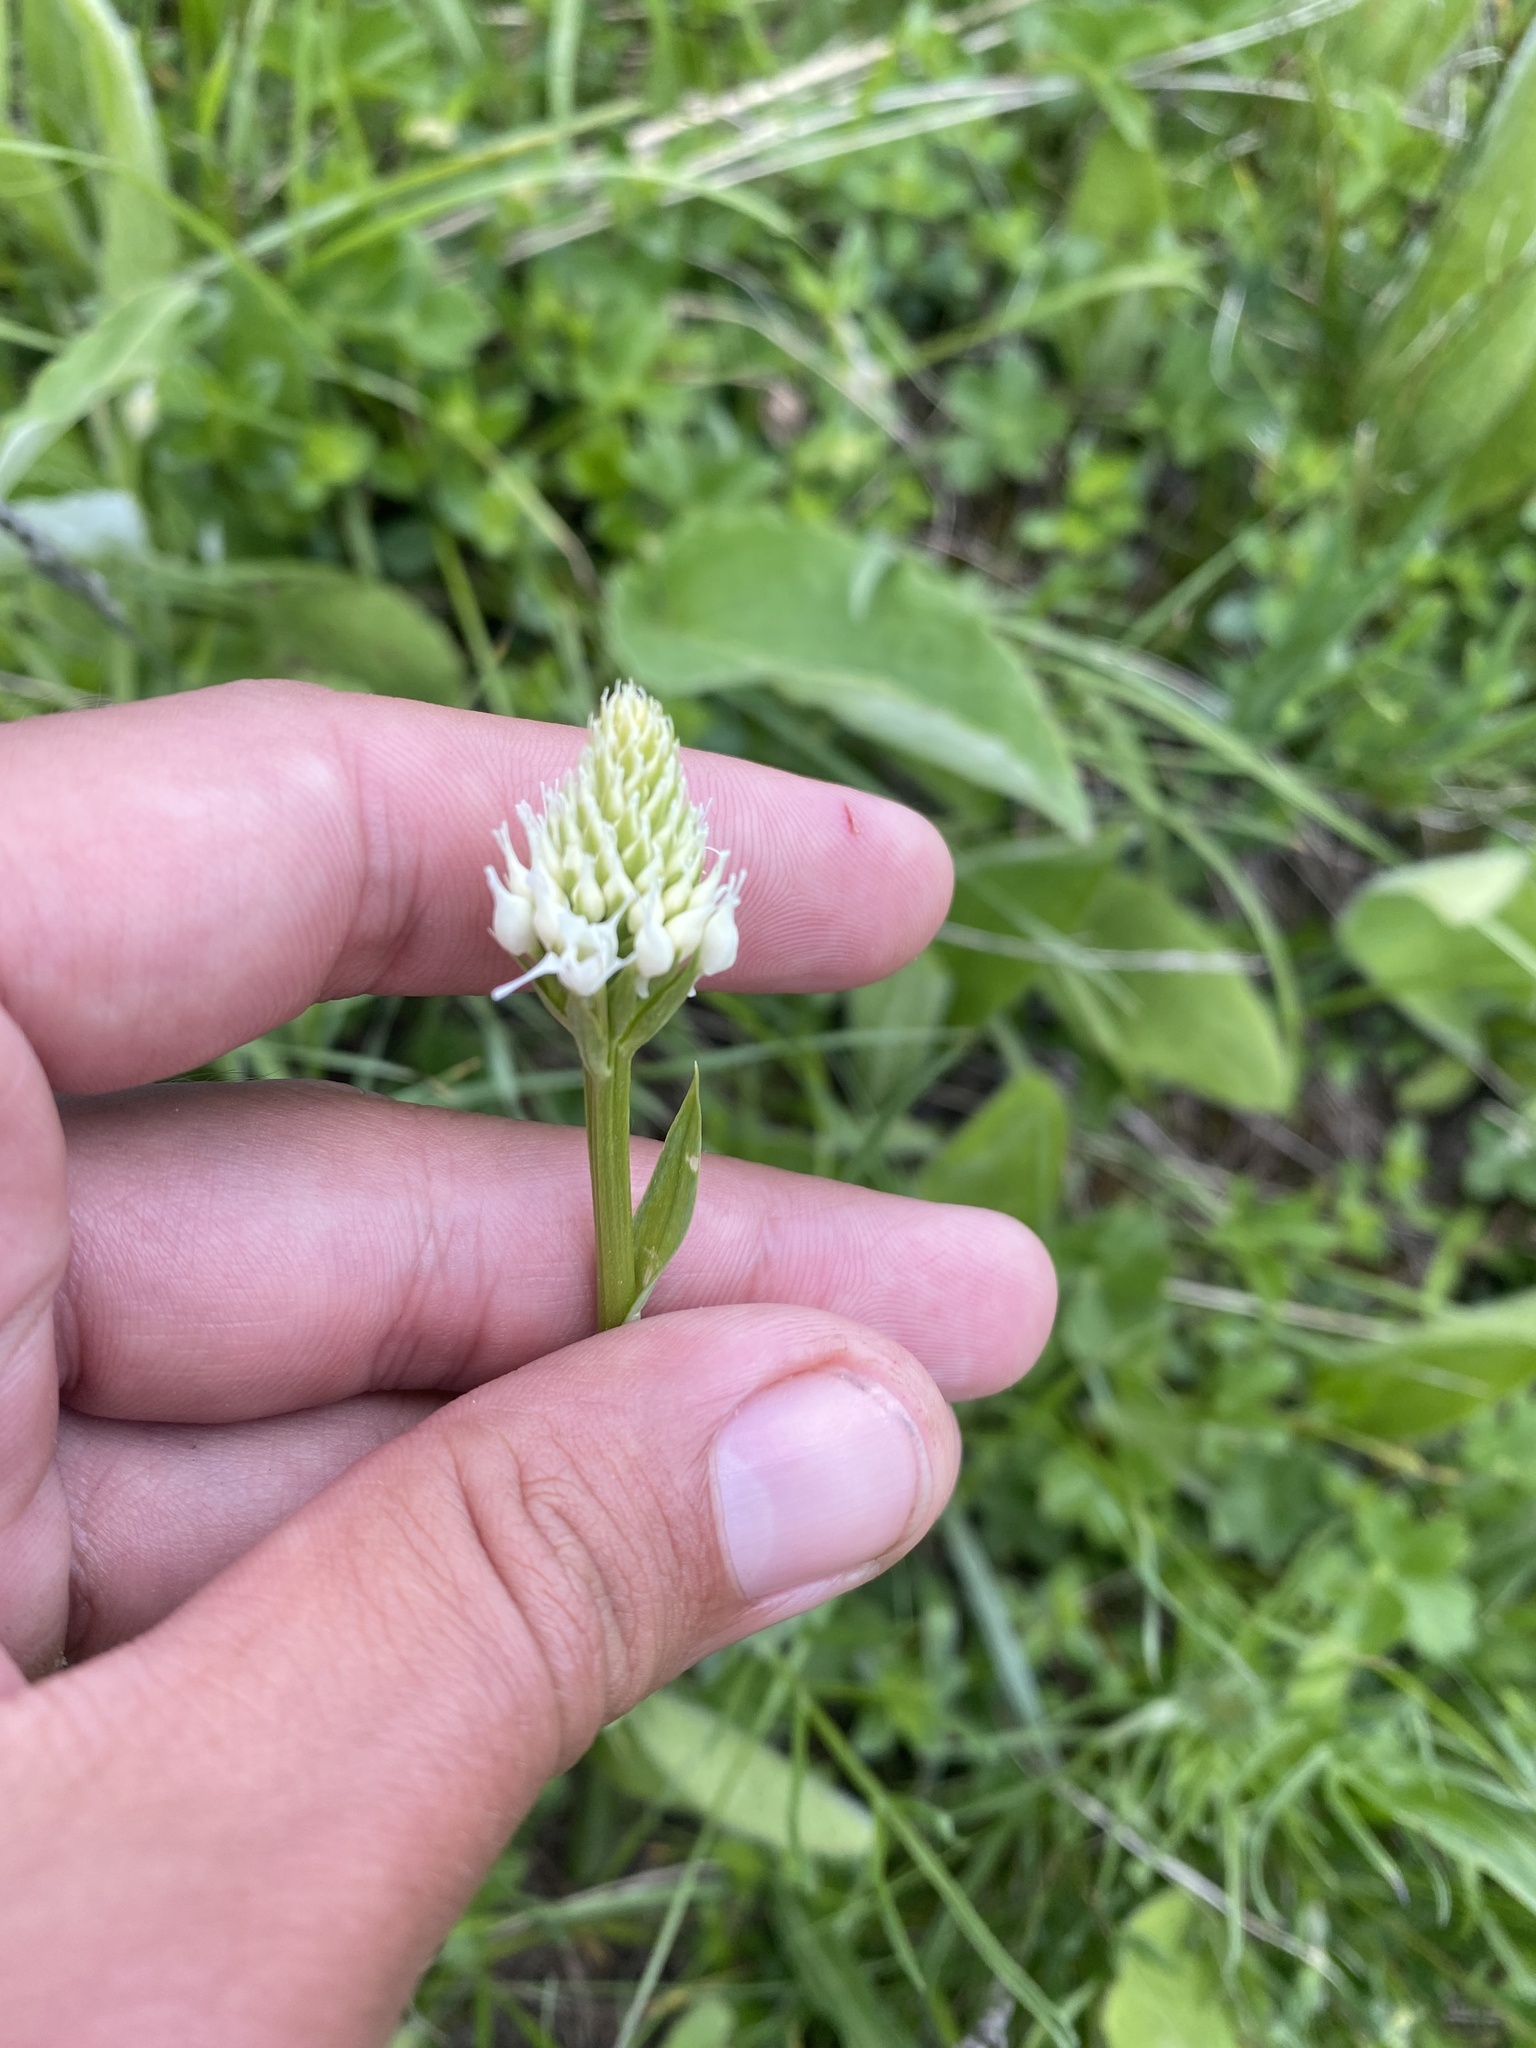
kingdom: Plantae
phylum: Tracheophyta
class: Liliopsida
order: Asparagales
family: Orchidaceae
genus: Traunsteinera
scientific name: Traunsteinera sphaerica
